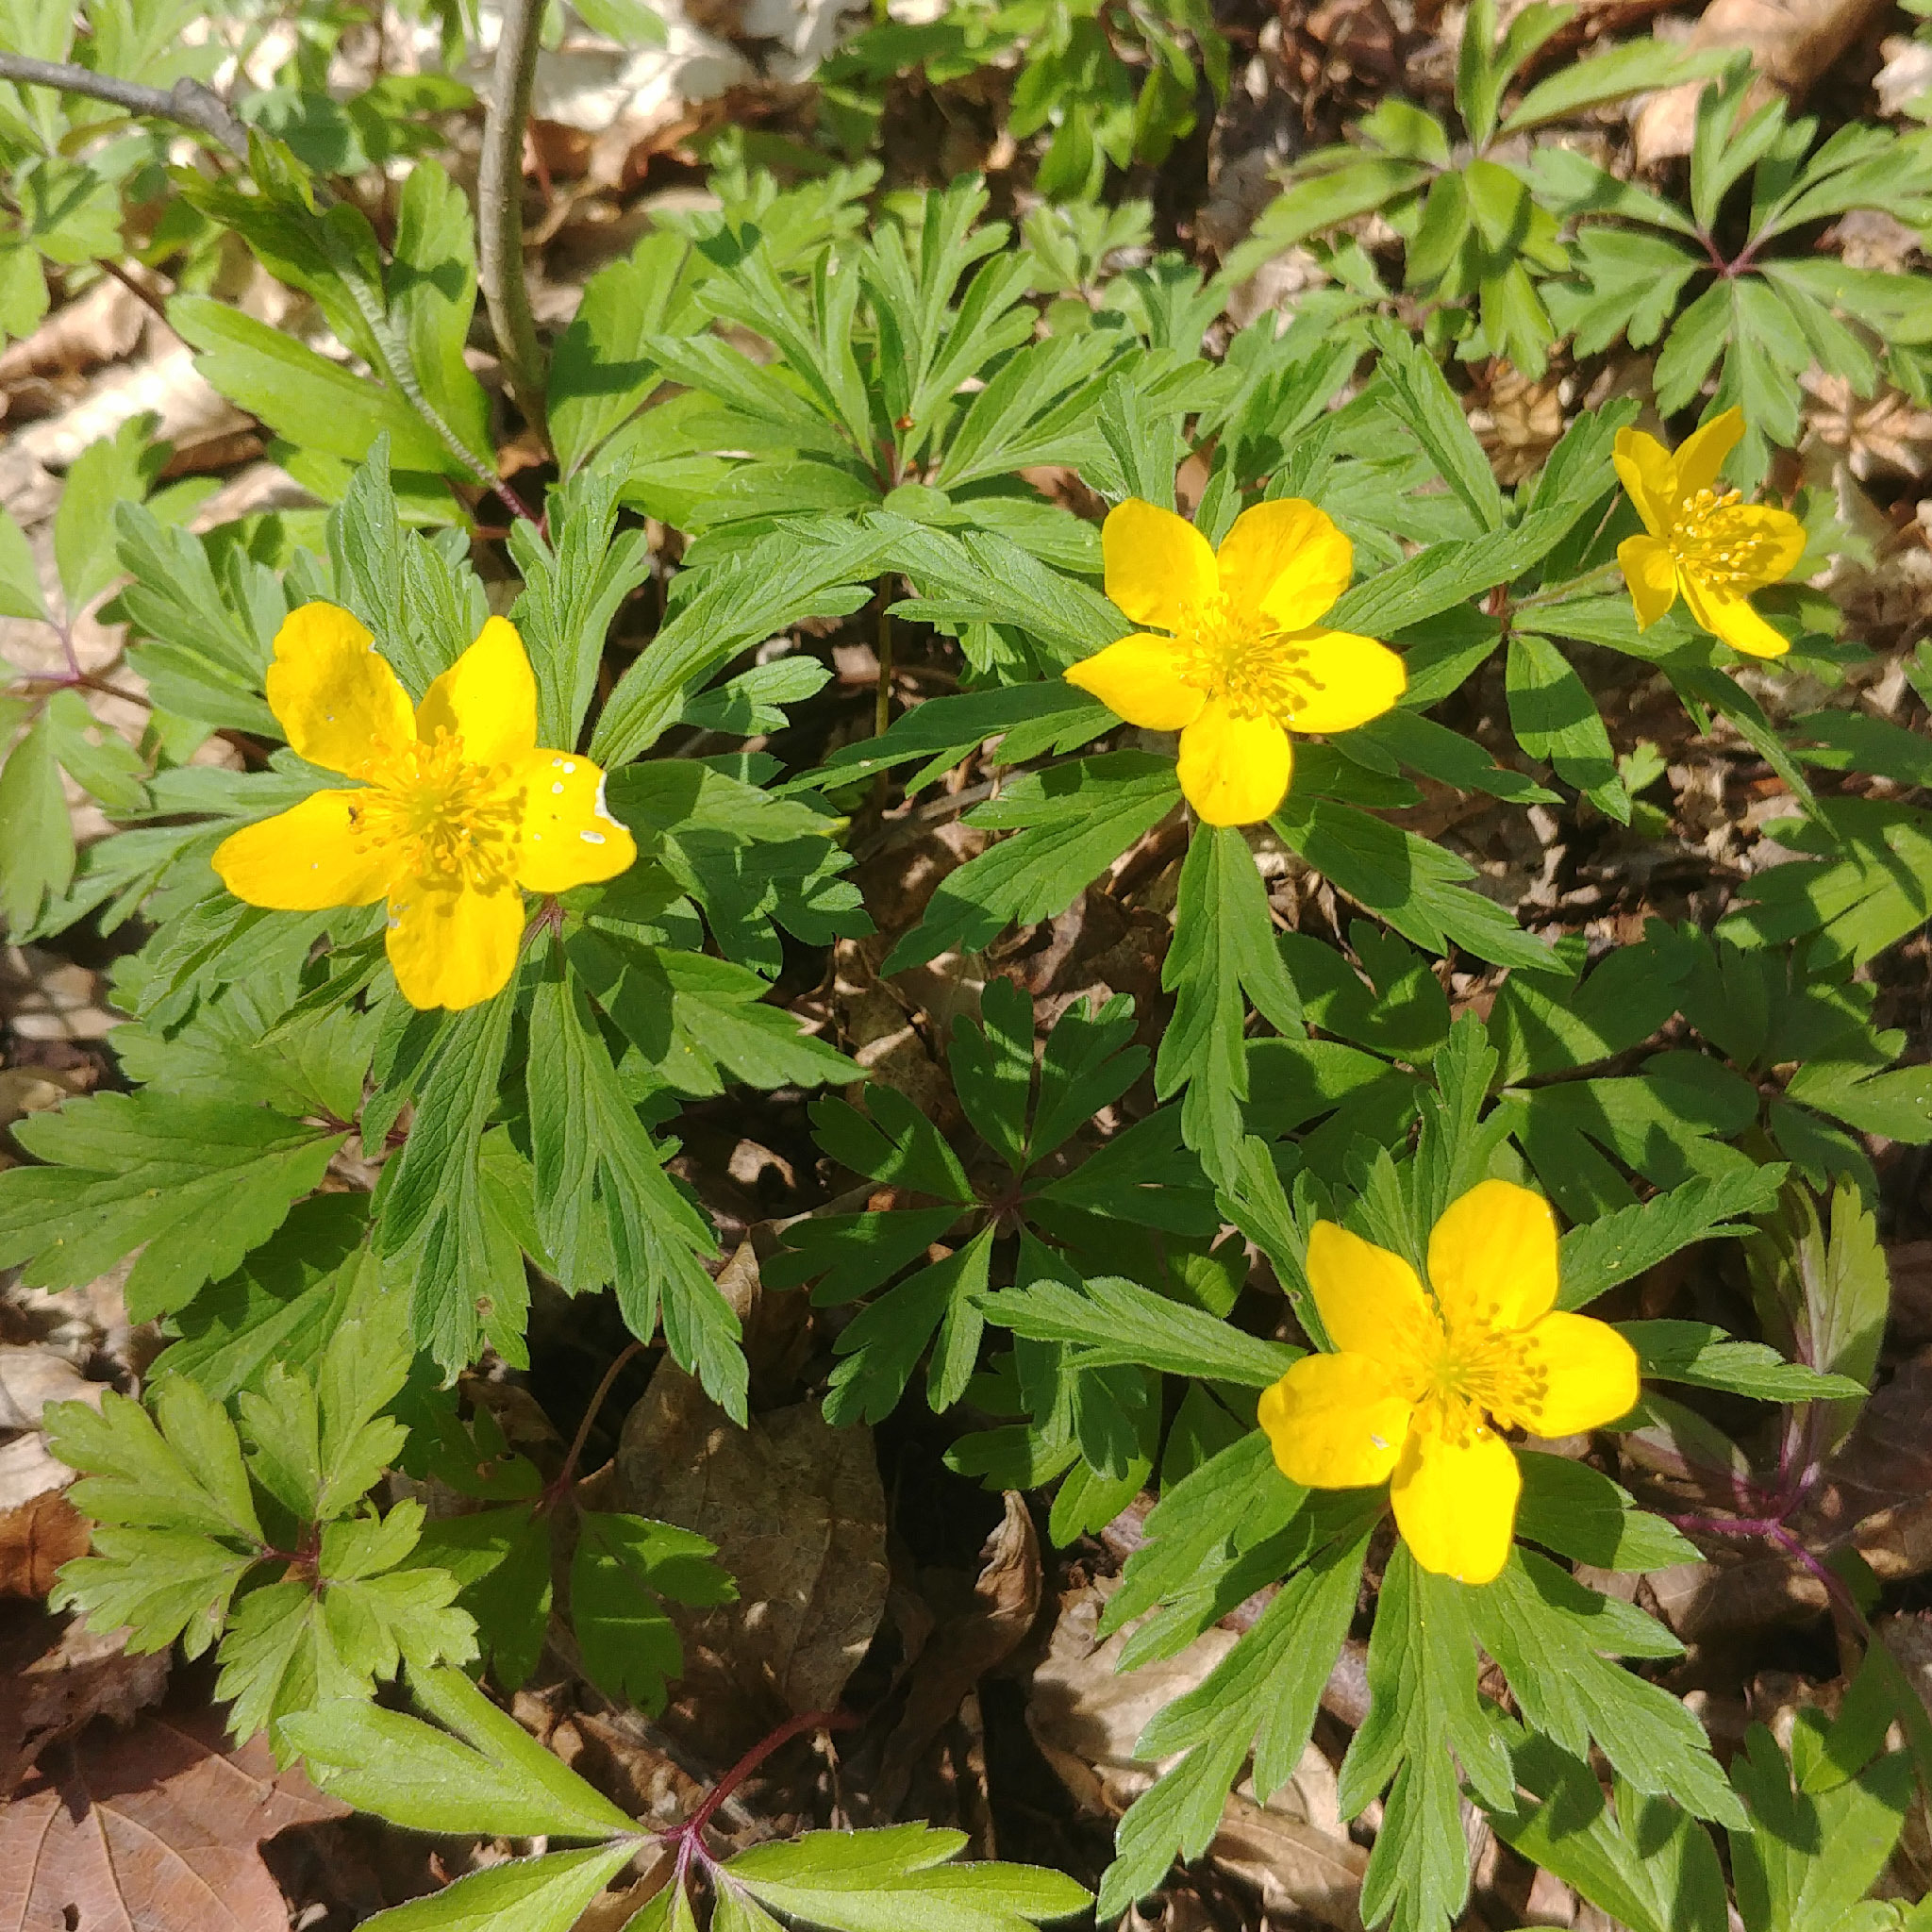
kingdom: Plantae
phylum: Tracheophyta
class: Magnoliopsida
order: Ranunculales
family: Ranunculaceae
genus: Anemone
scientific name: Anemone ranunculoides
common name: Yellow anemone
